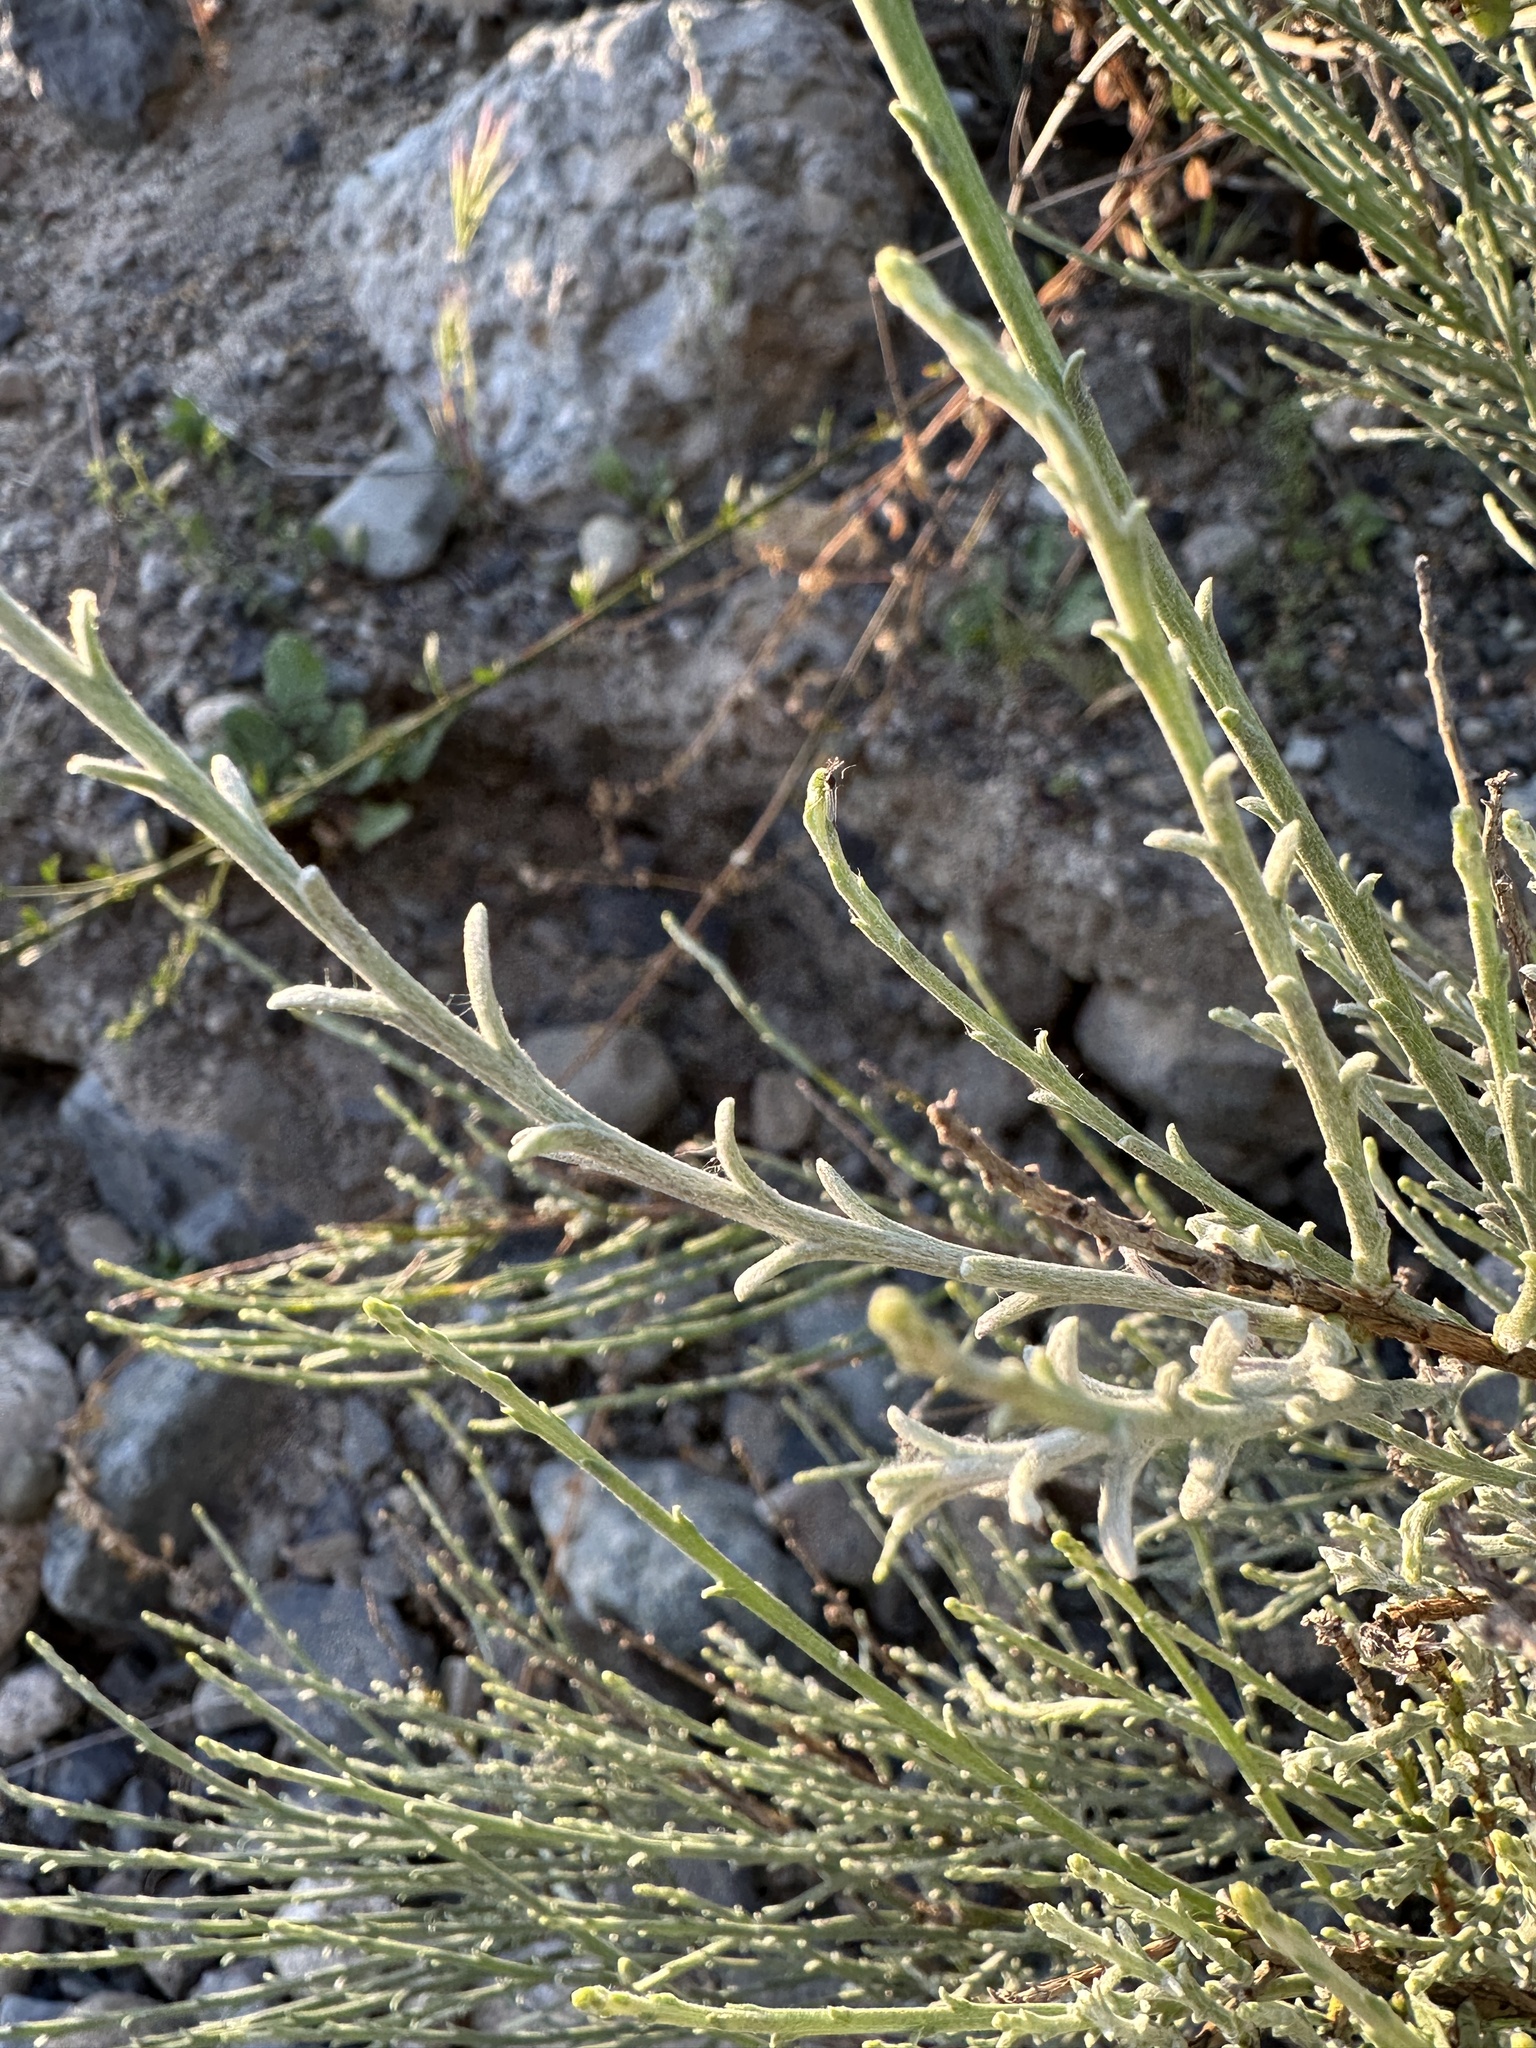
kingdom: Plantae
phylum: Tracheophyta
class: Magnoliopsida
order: Asterales
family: Asteraceae
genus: Lepidospartum
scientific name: Lepidospartum squamatum
